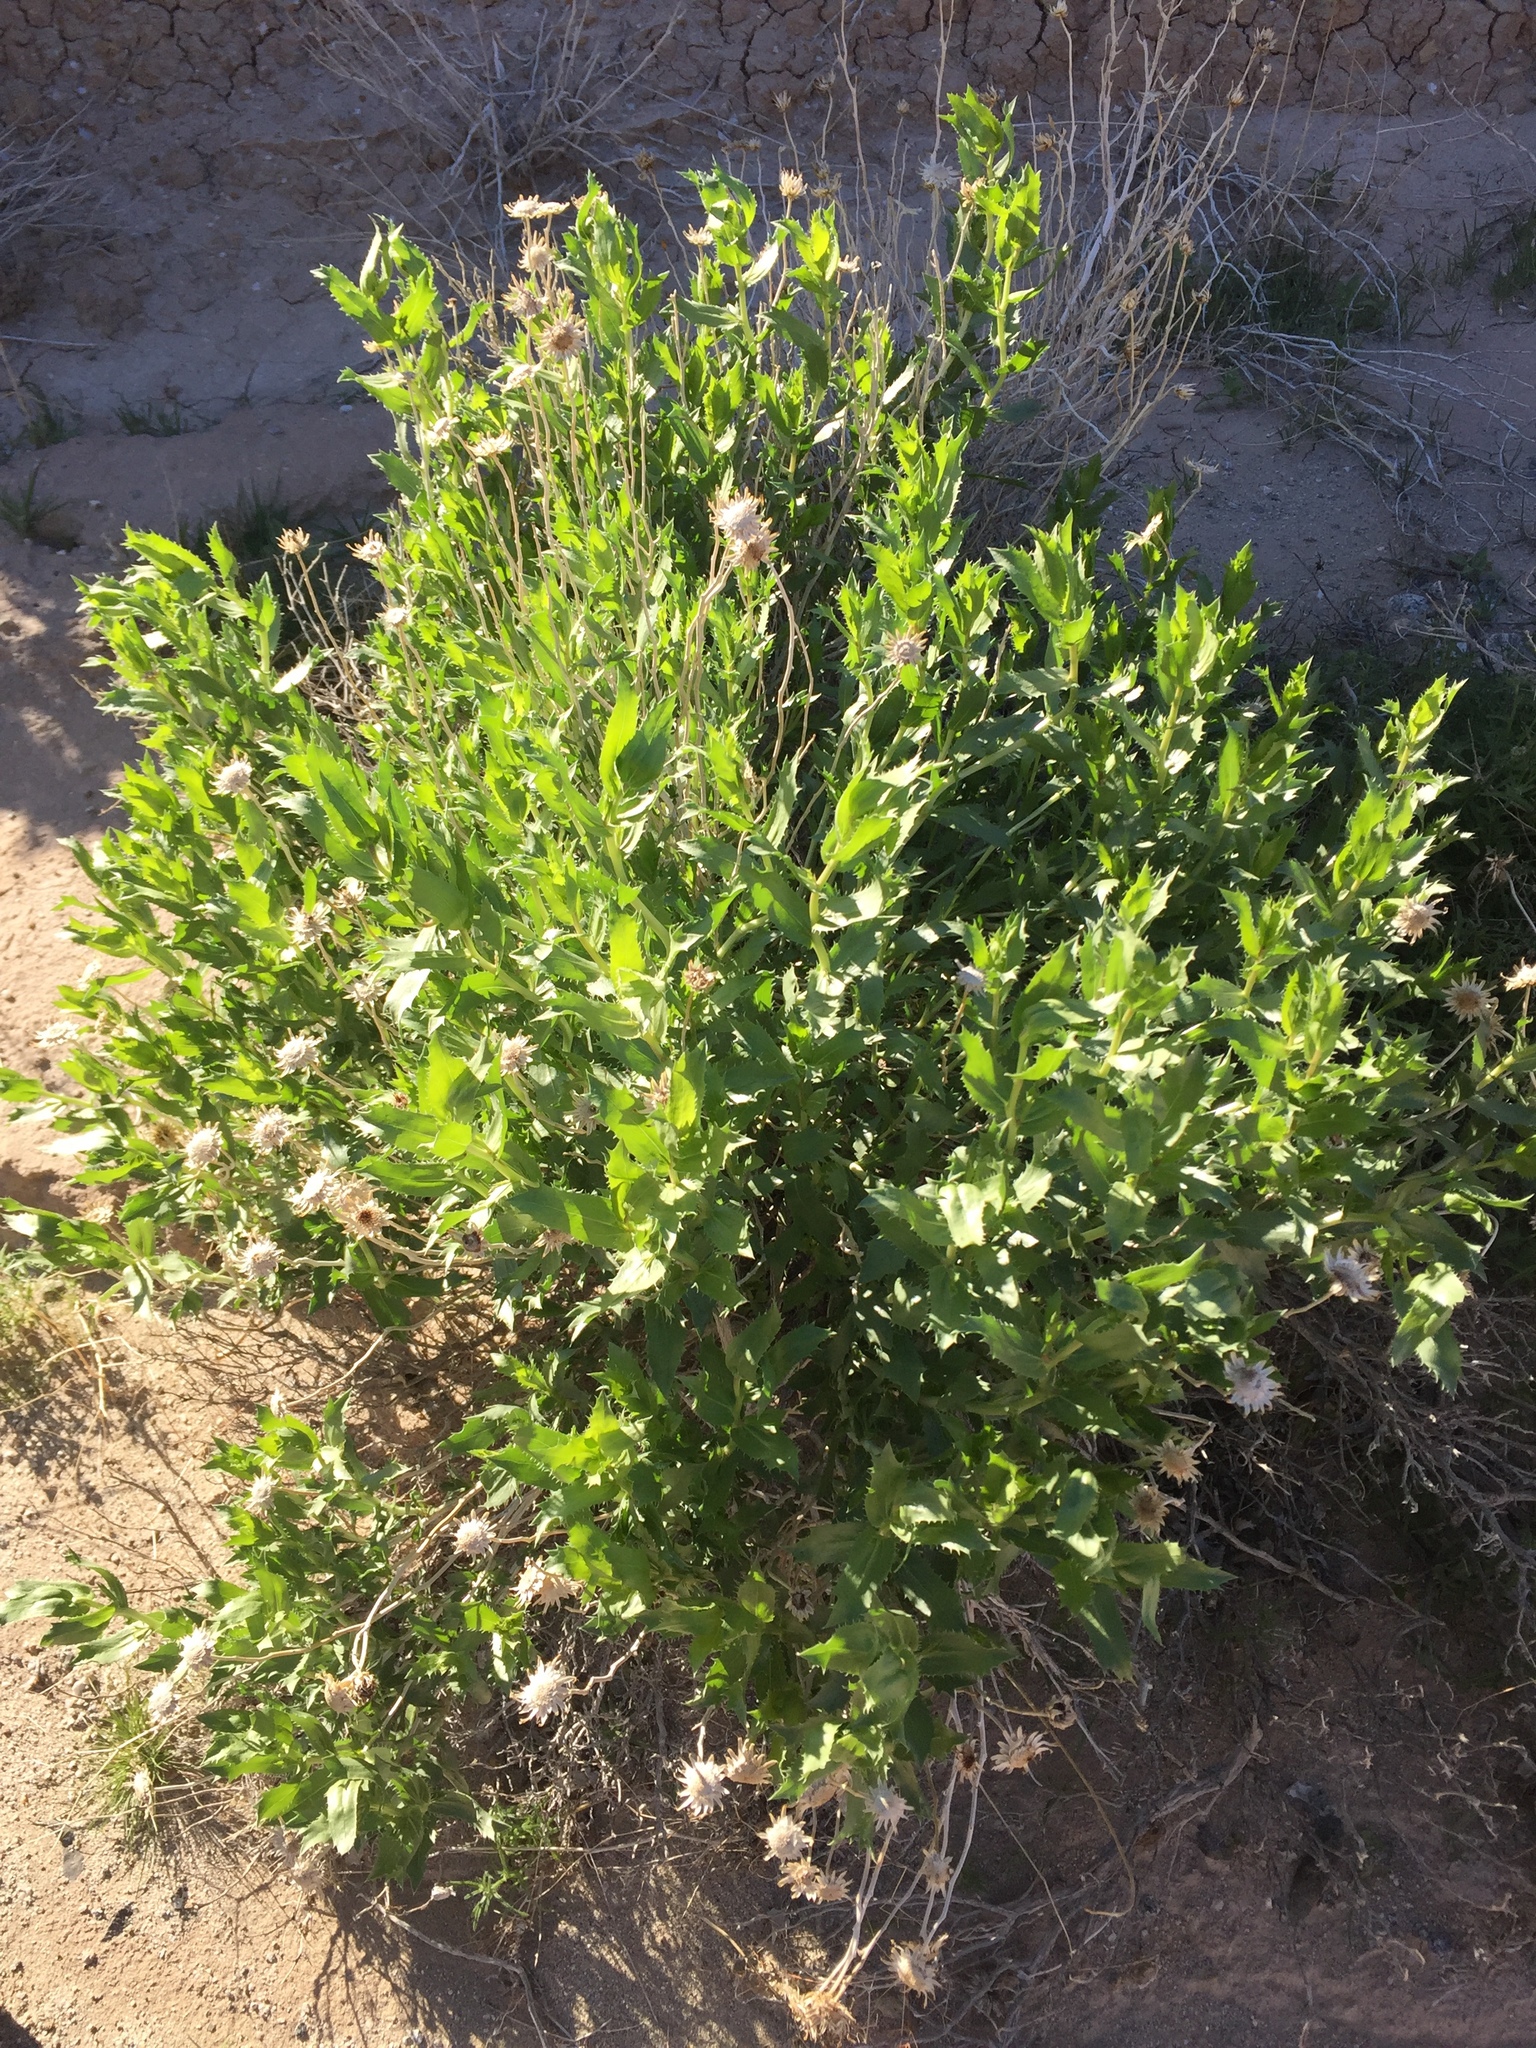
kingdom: Plantae
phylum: Tracheophyta
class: Magnoliopsida
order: Asterales
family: Asteraceae
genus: Xylorhiza
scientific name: Xylorhiza orcuttii
